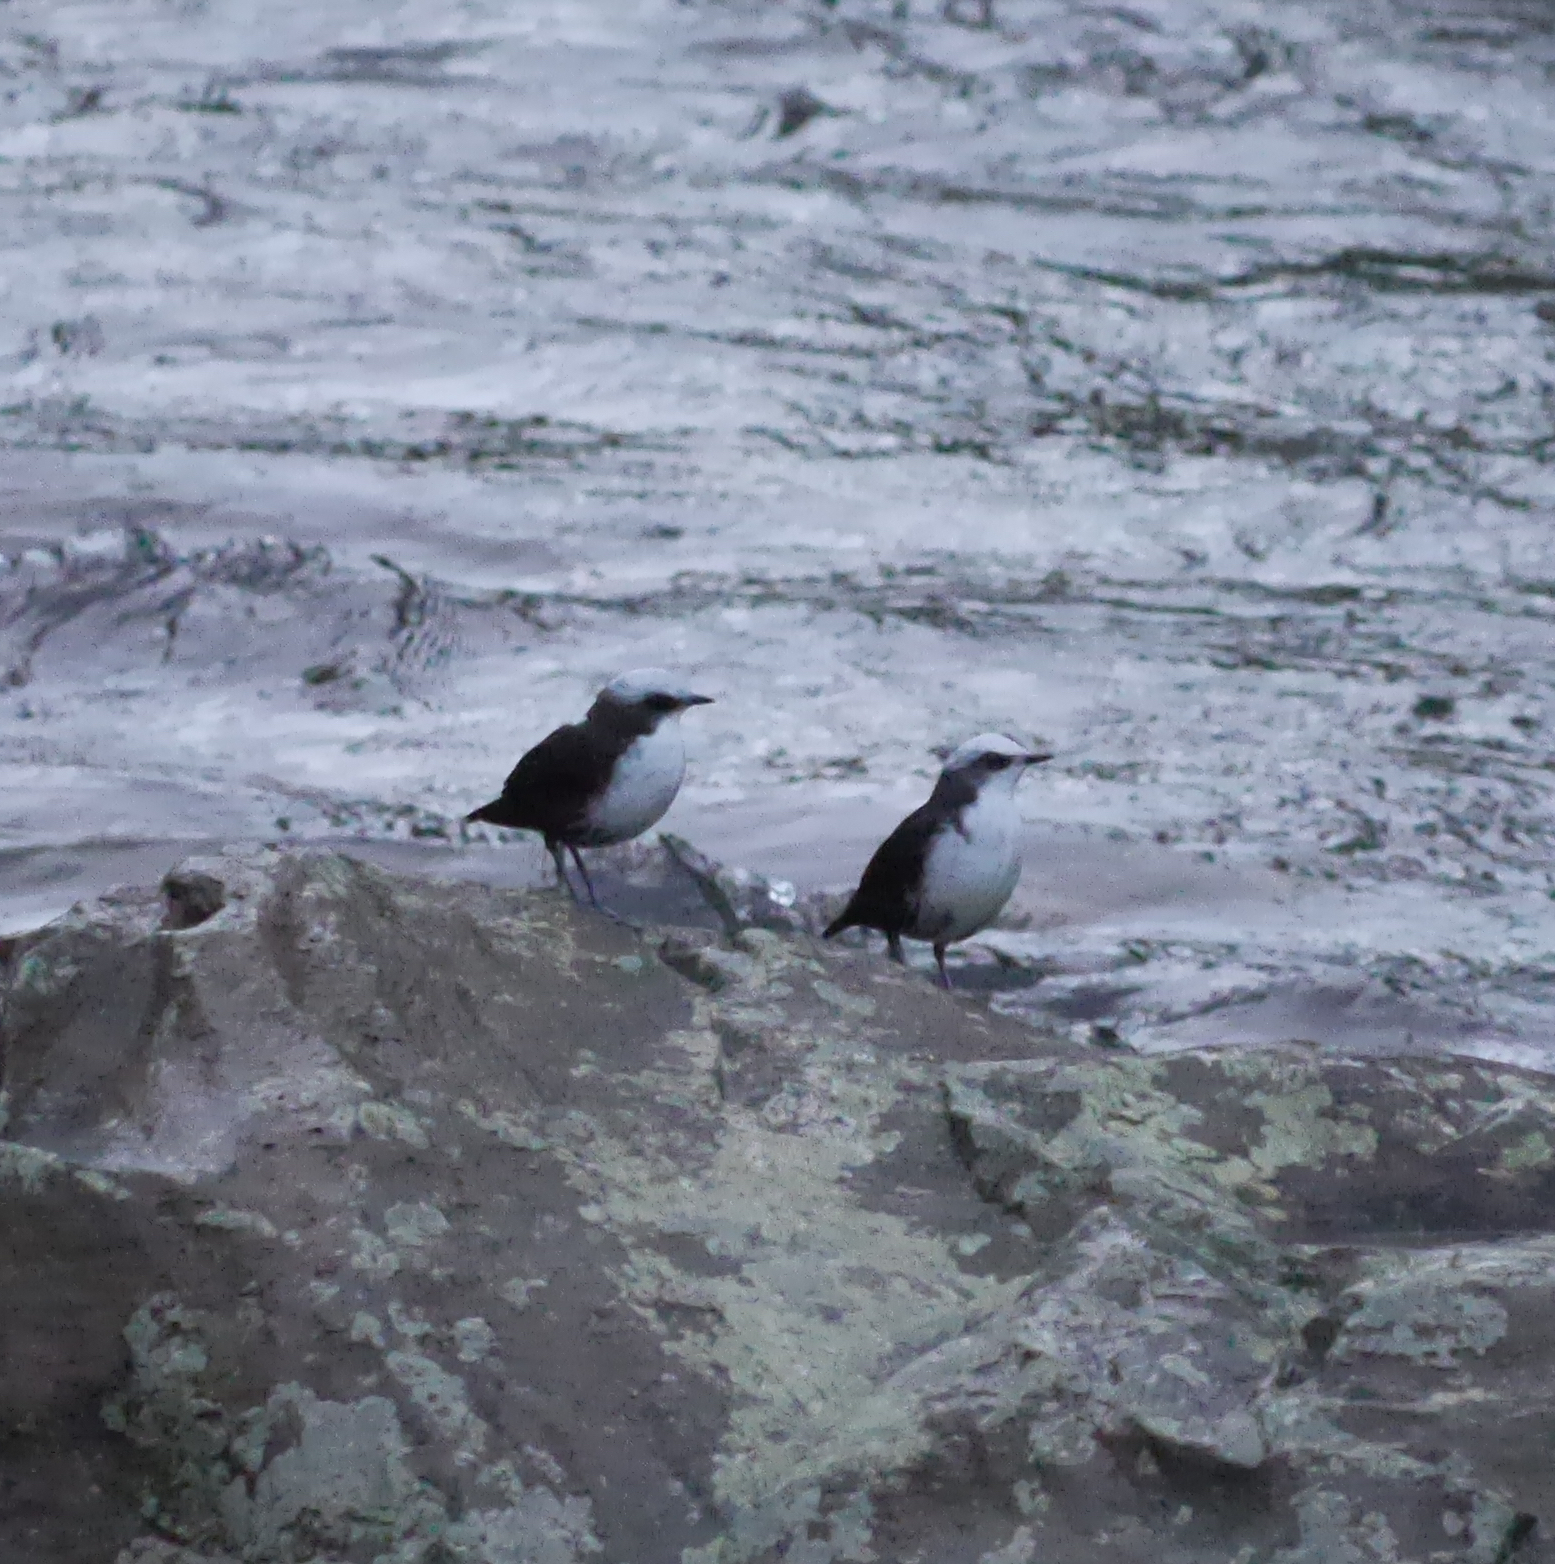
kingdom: Animalia
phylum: Chordata
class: Aves
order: Passeriformes
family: Cinclidae
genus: Cinclus
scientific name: Cinclus leucocephalus
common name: White-capped dipper
